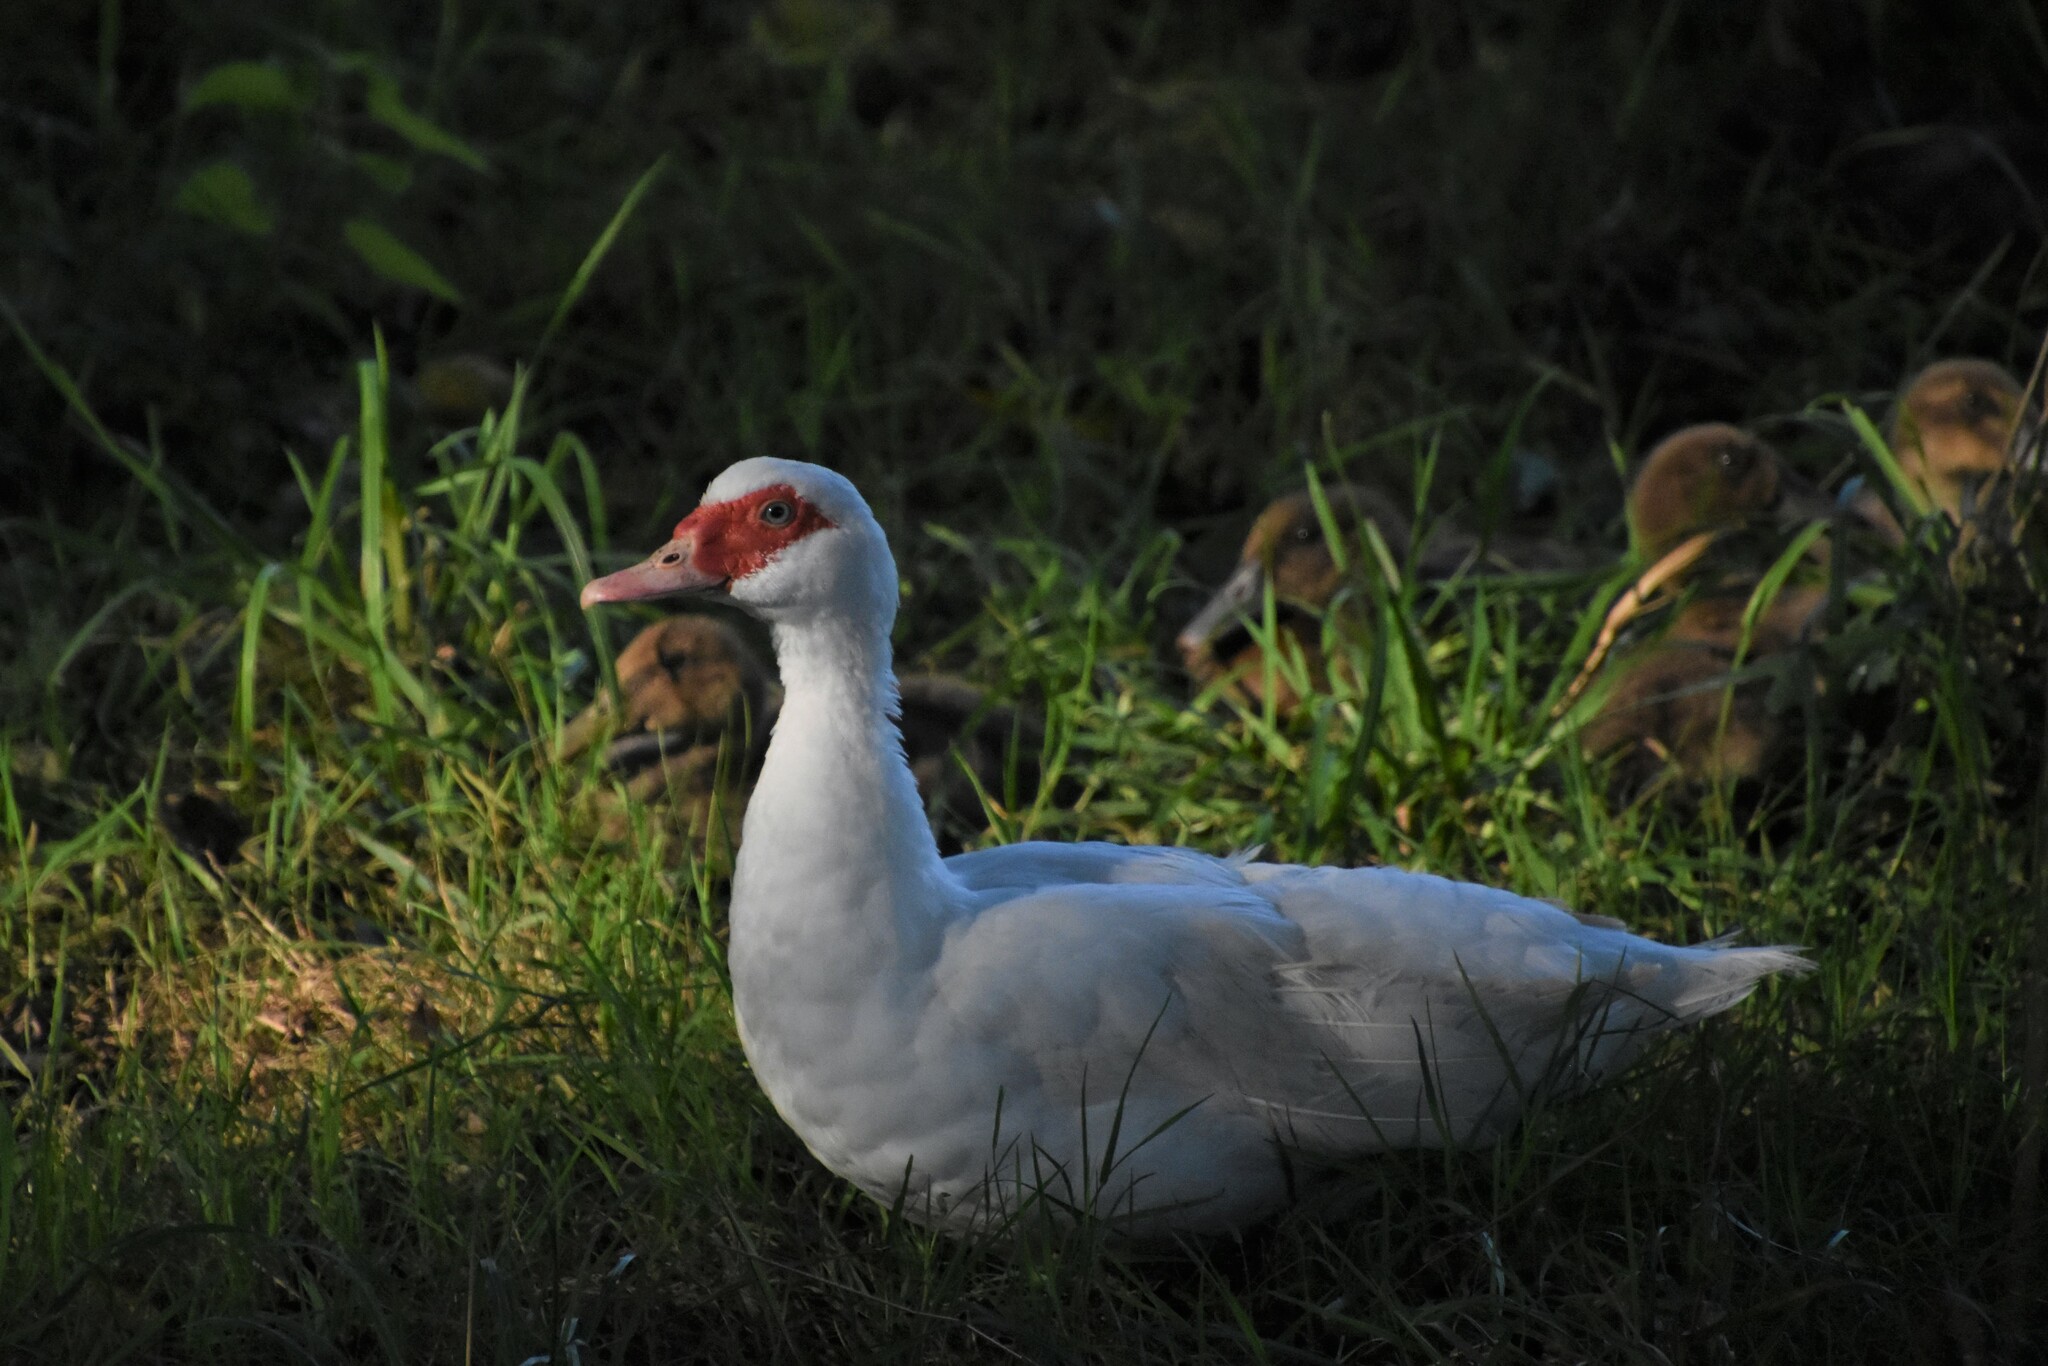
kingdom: Animalia
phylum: Chordata
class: Aves
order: Anseriformes
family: Anatidae
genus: Cairina
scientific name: Cairina moschata
